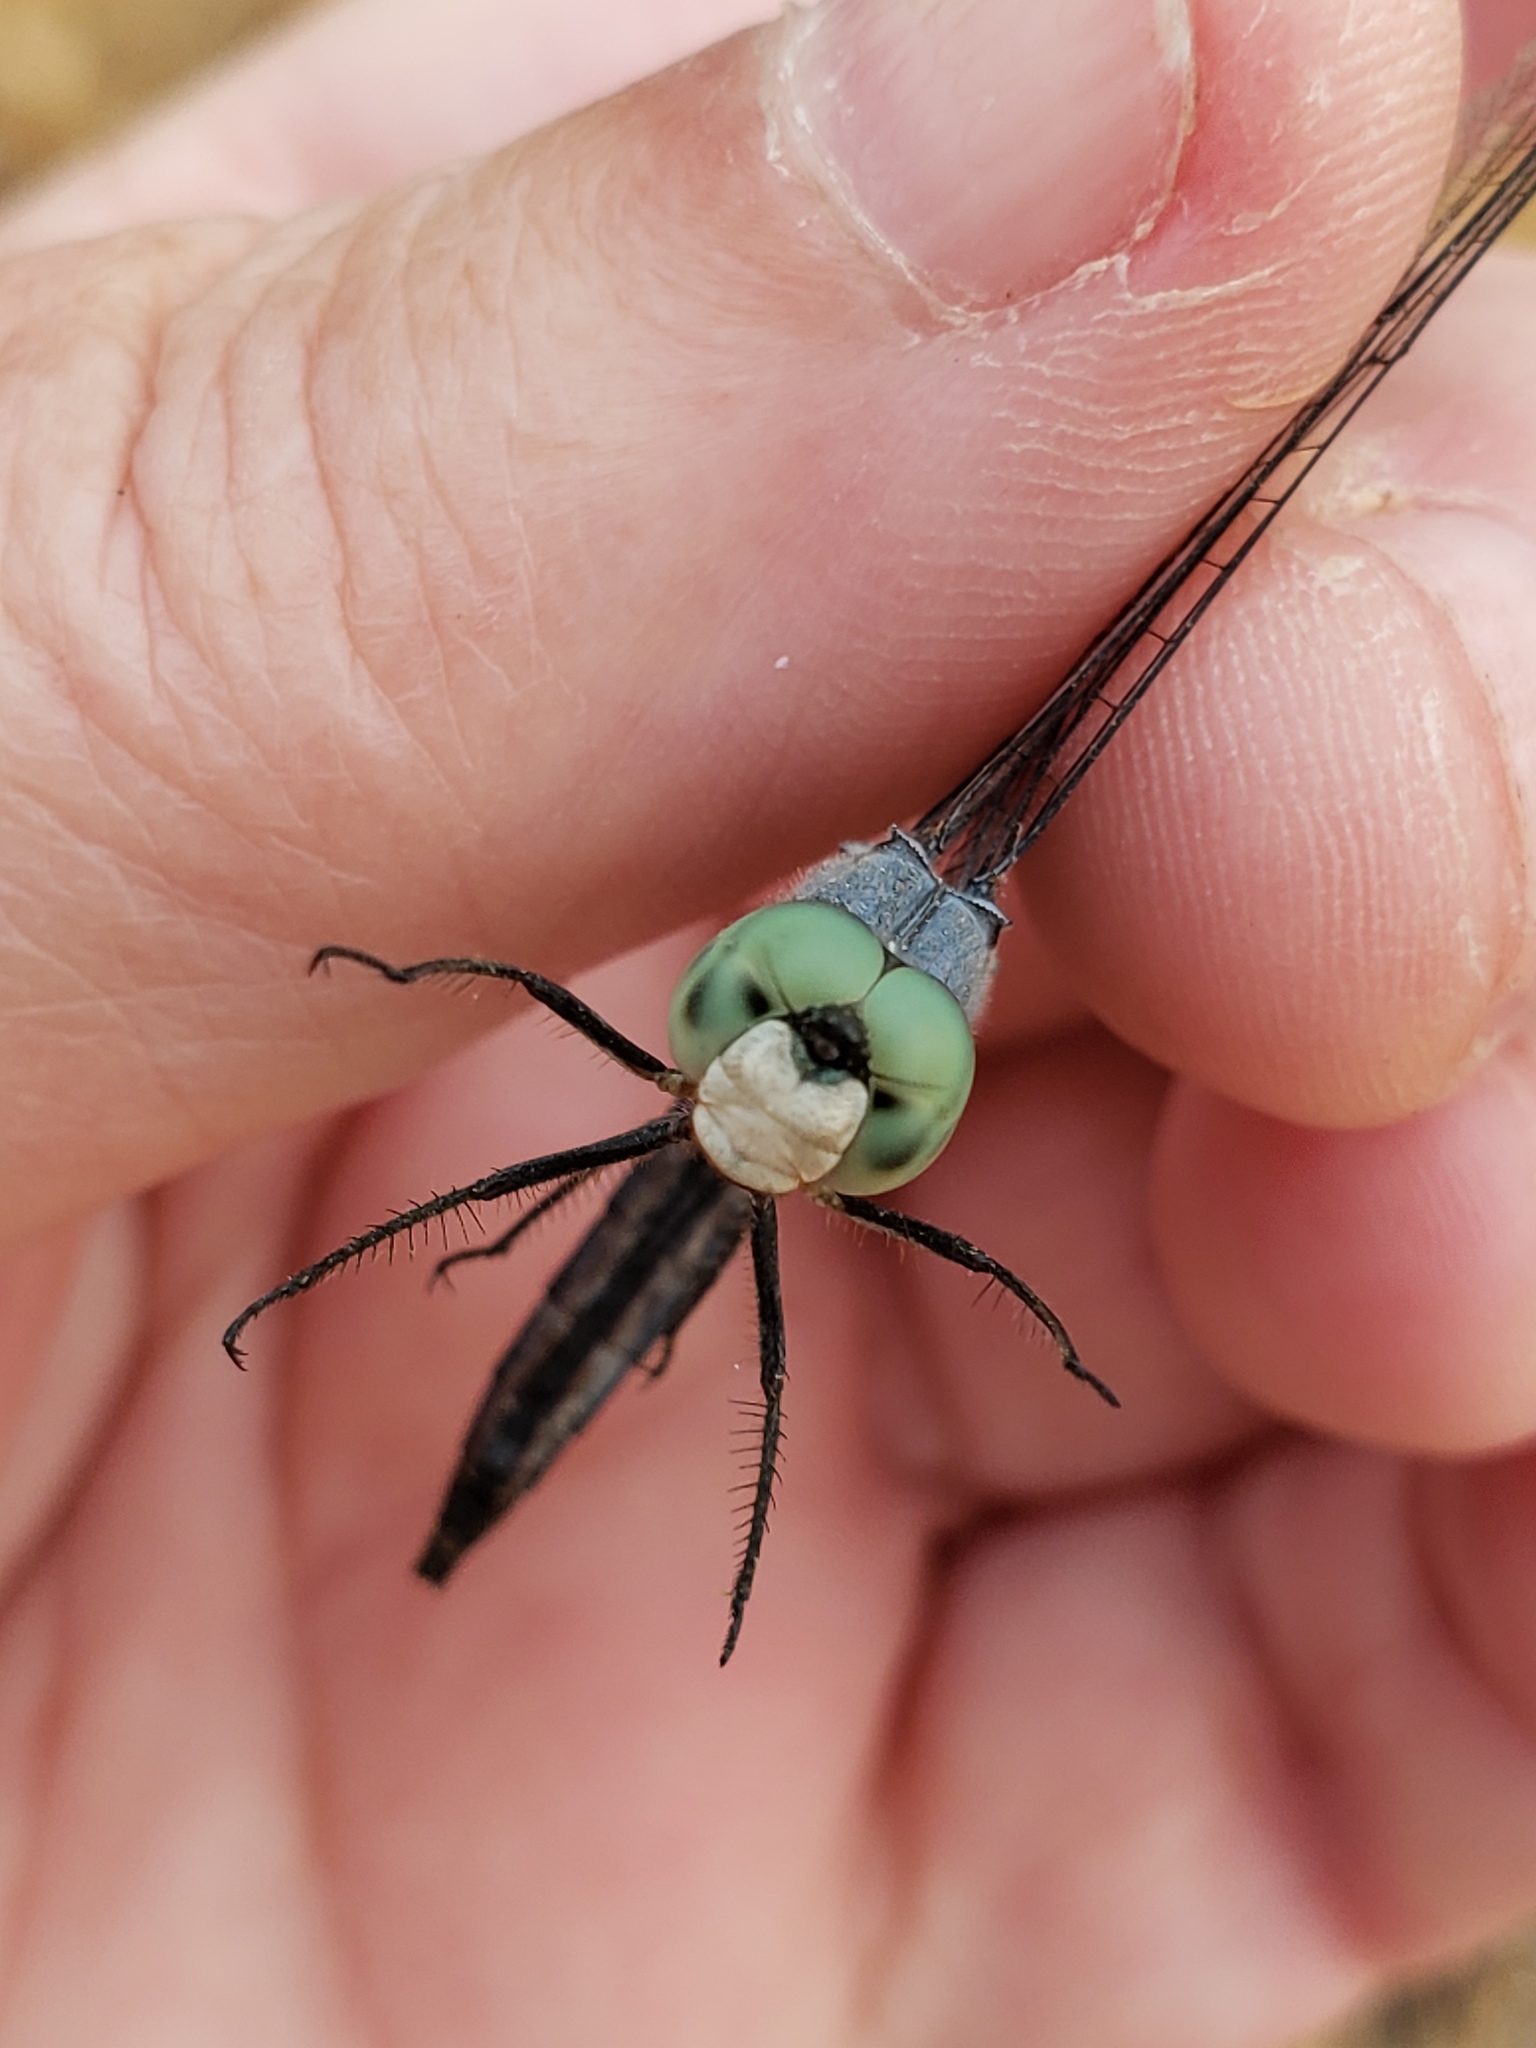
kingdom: Animalia
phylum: Arthropoda
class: Insecta
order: Odonata
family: Libellulidae
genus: Pachydiplax
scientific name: Pachydiplax longipennis
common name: Blue dasher
